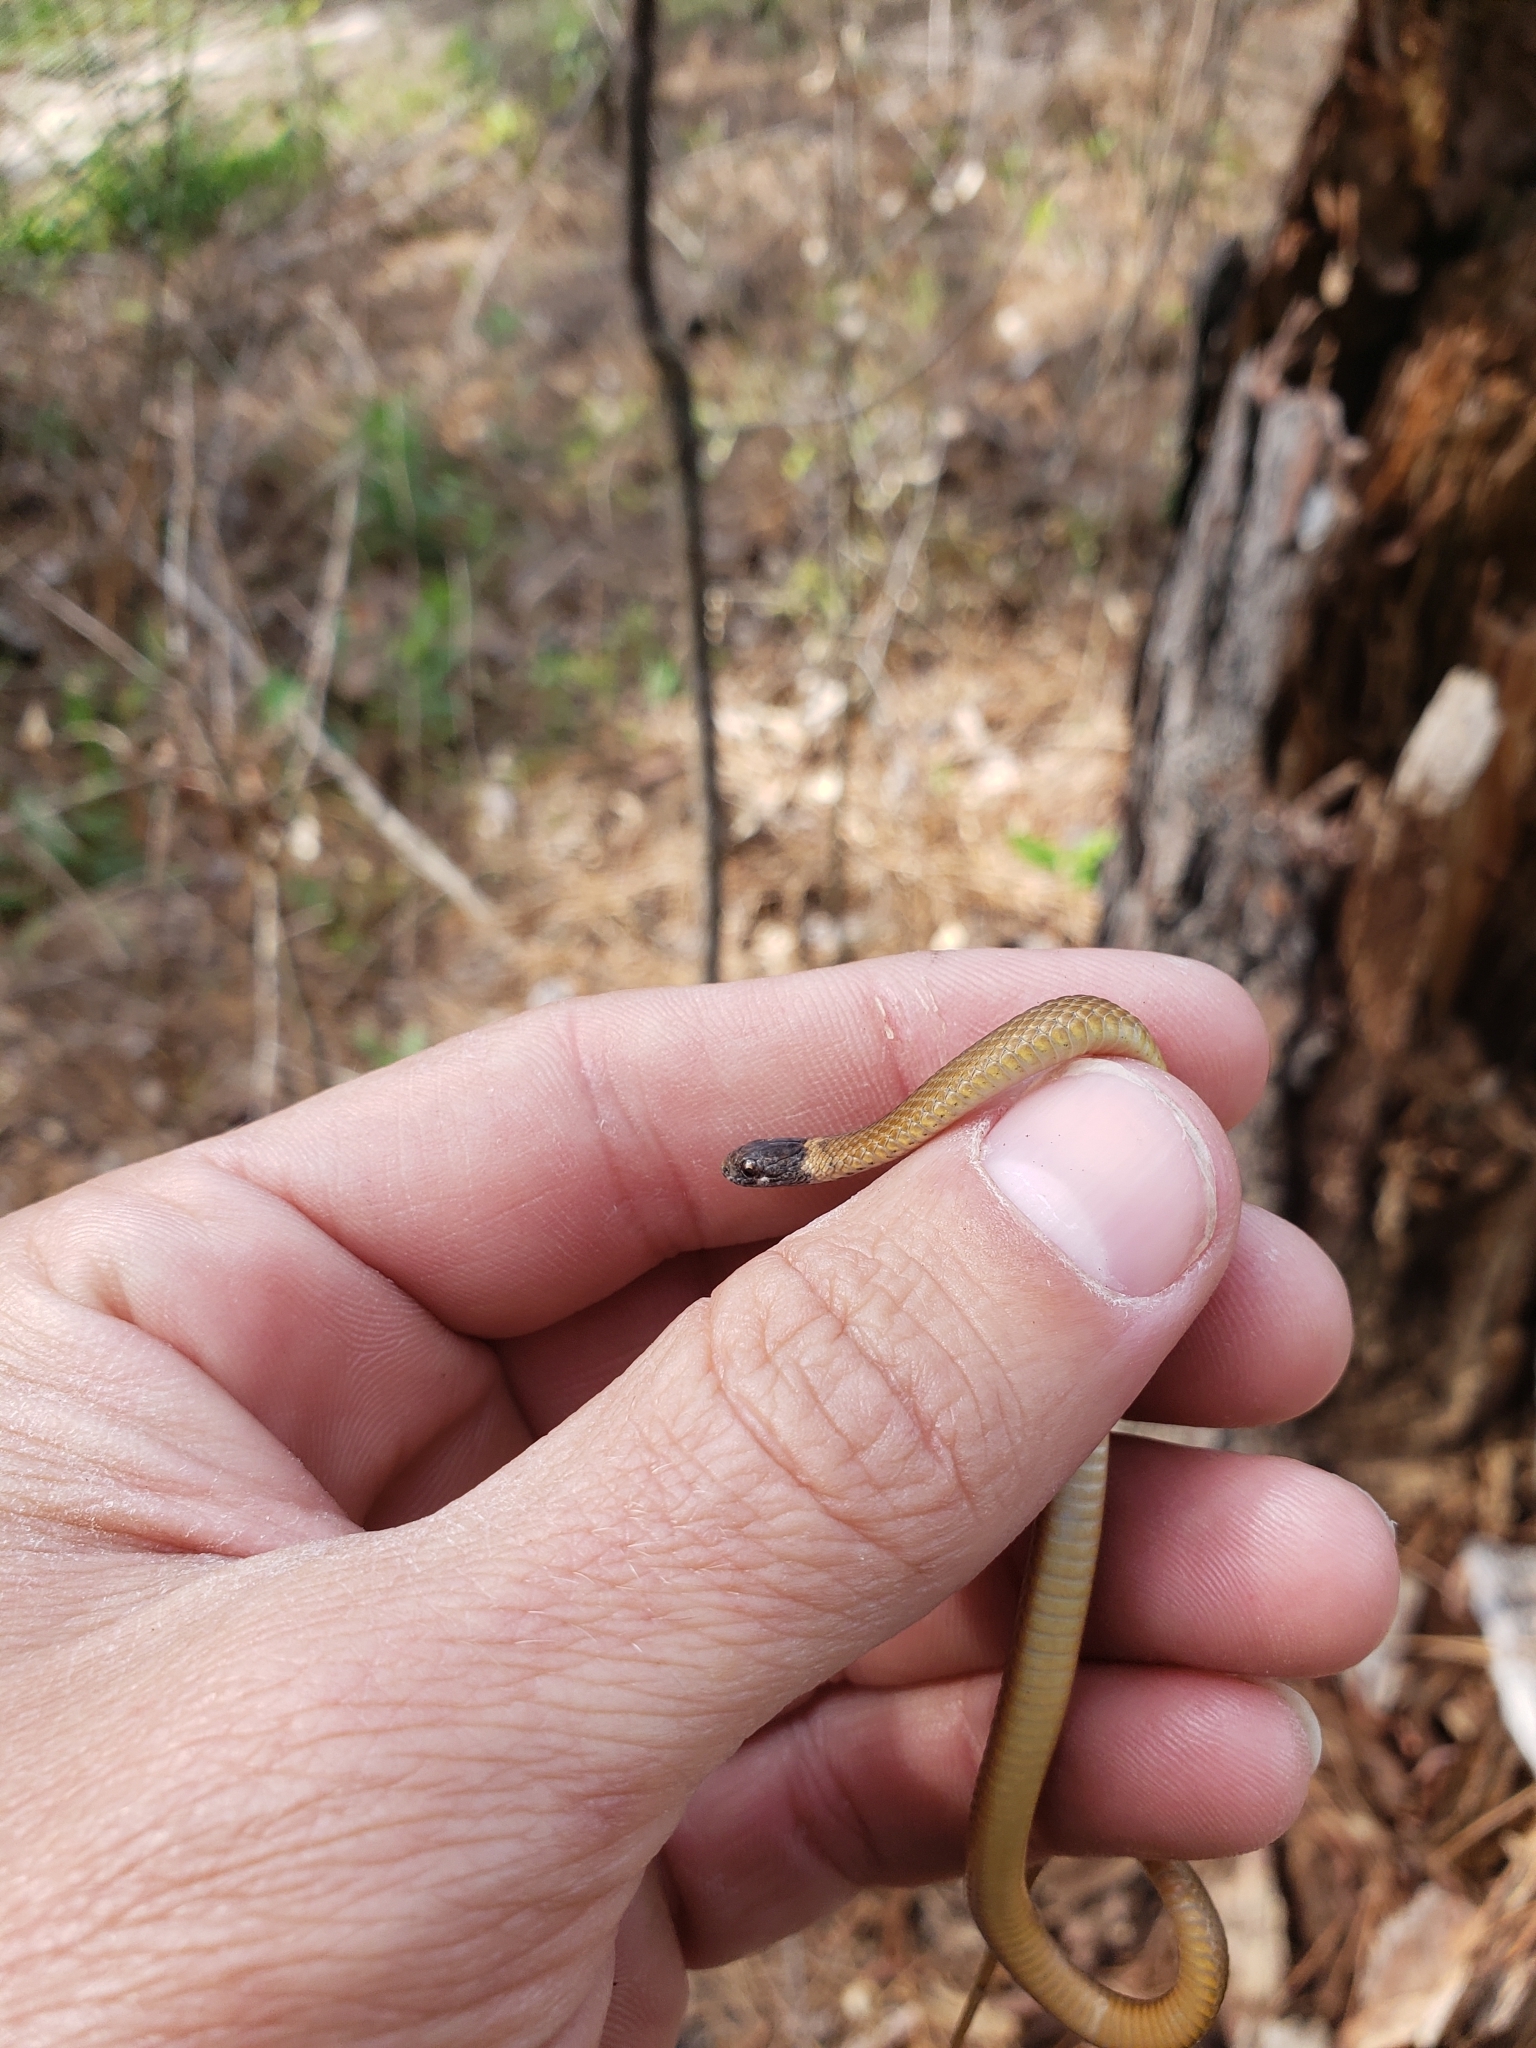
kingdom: Animalia
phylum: Chordata
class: Squamata
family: Colubridae
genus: Storeria
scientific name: Storeria occipitomaculata
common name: Redbelly snake
